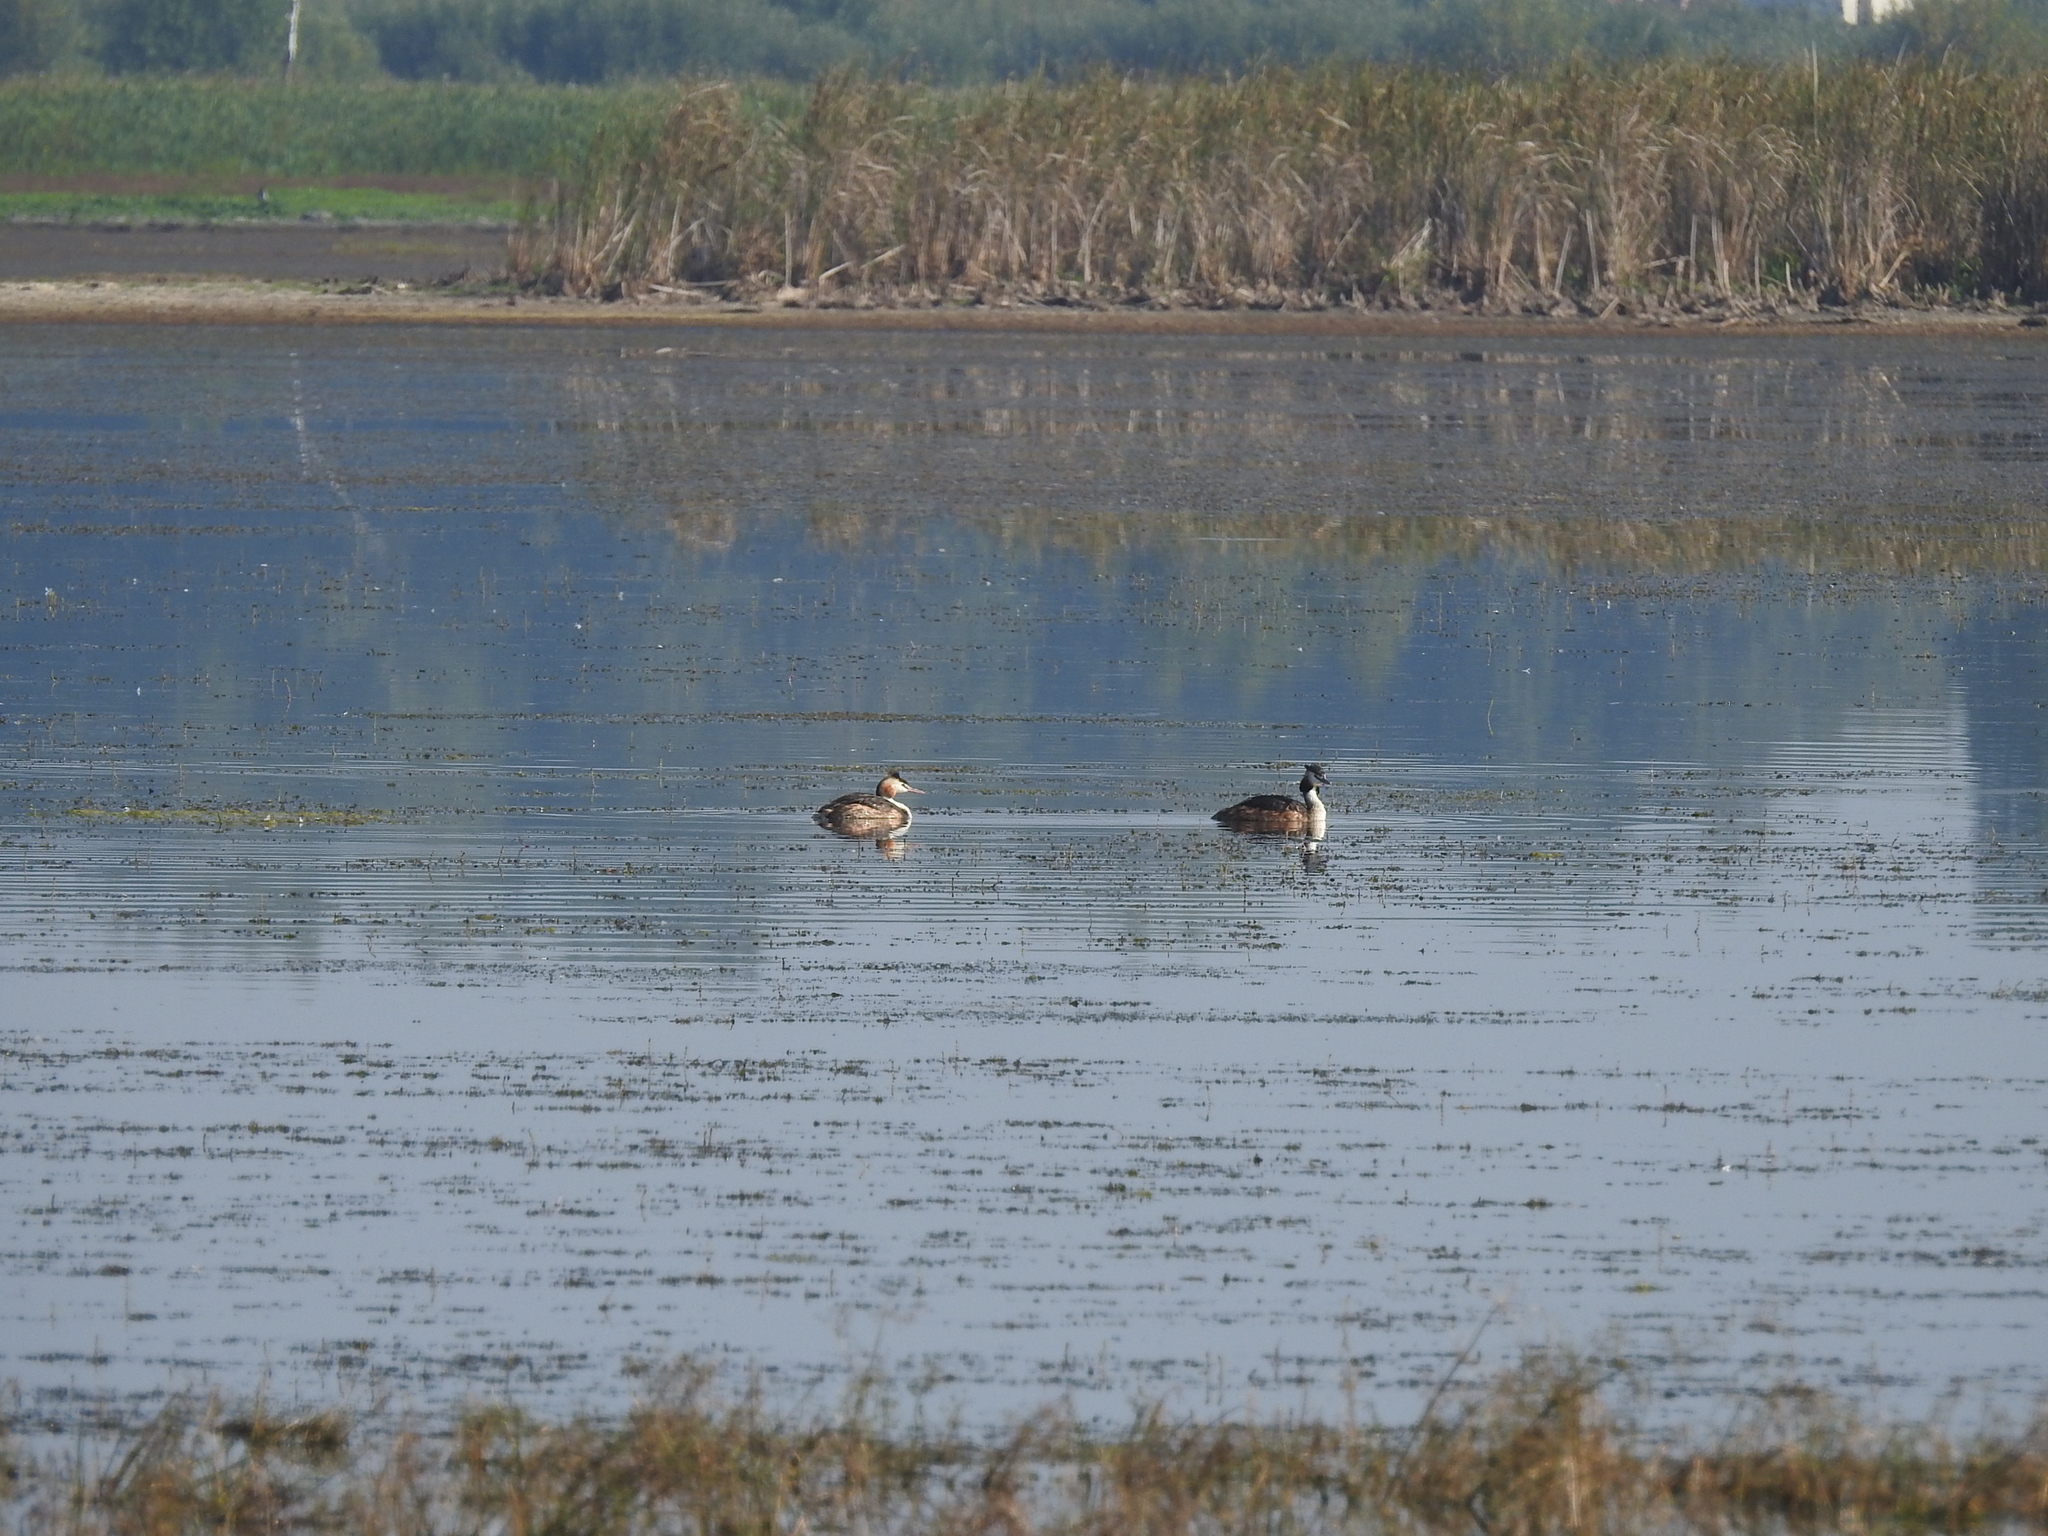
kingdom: Animalia
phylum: Chordata
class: Aves
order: Podicipediformes
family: Podicipedidae
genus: Podiceps
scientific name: Podiceps cristatus
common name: Great crested grebe
